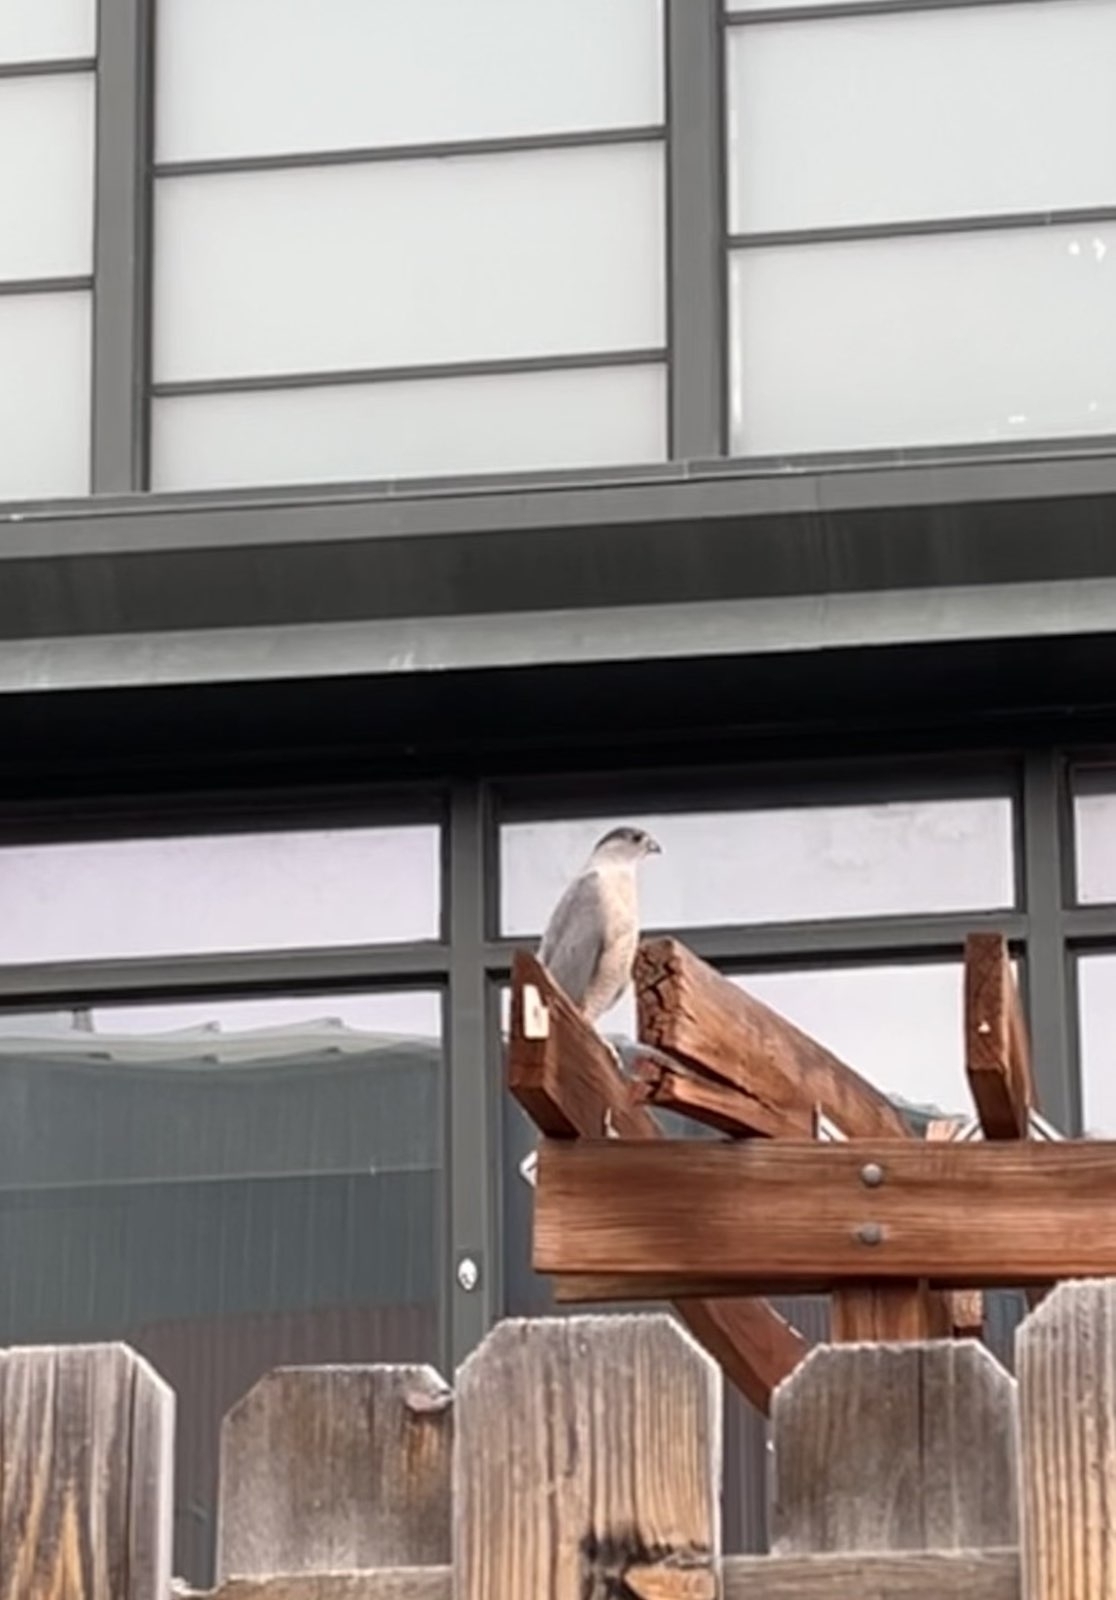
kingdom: Animalia
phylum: Chordata
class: Aves
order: Accipitriformes
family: Accipitridae
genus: Accipiter
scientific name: Accipiter cooperii
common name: Cooper's hawk
